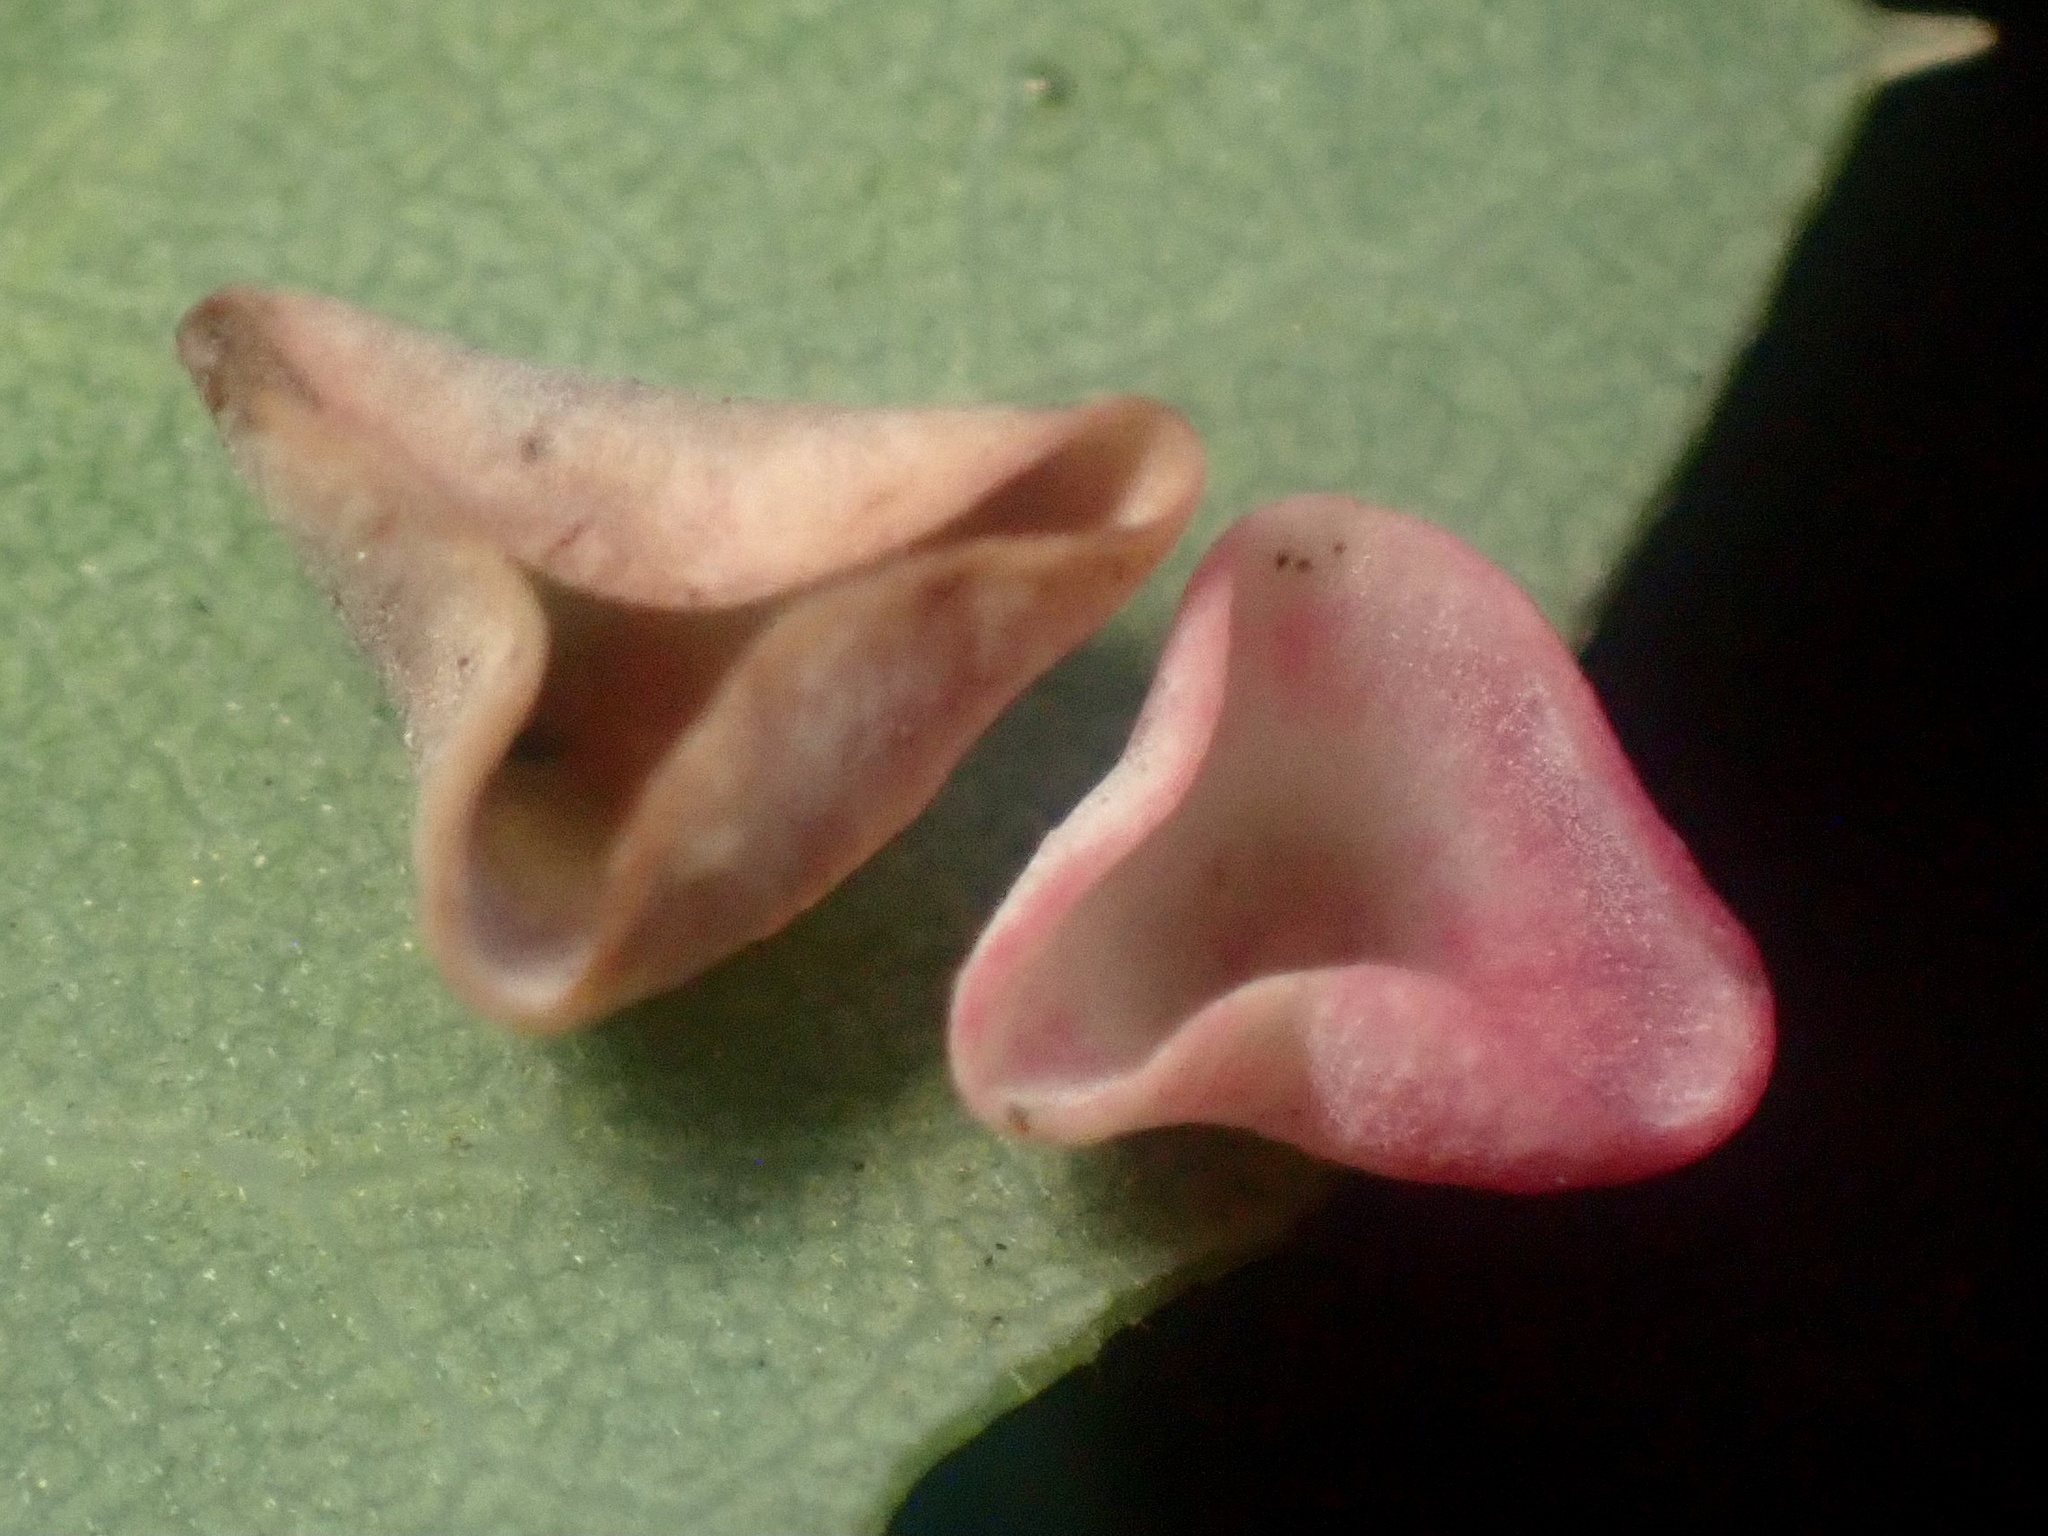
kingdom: Animalia
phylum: Arthropoda
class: Insecta
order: Hymenoptera
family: Cynipidae
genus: Andricus
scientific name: Andricus
